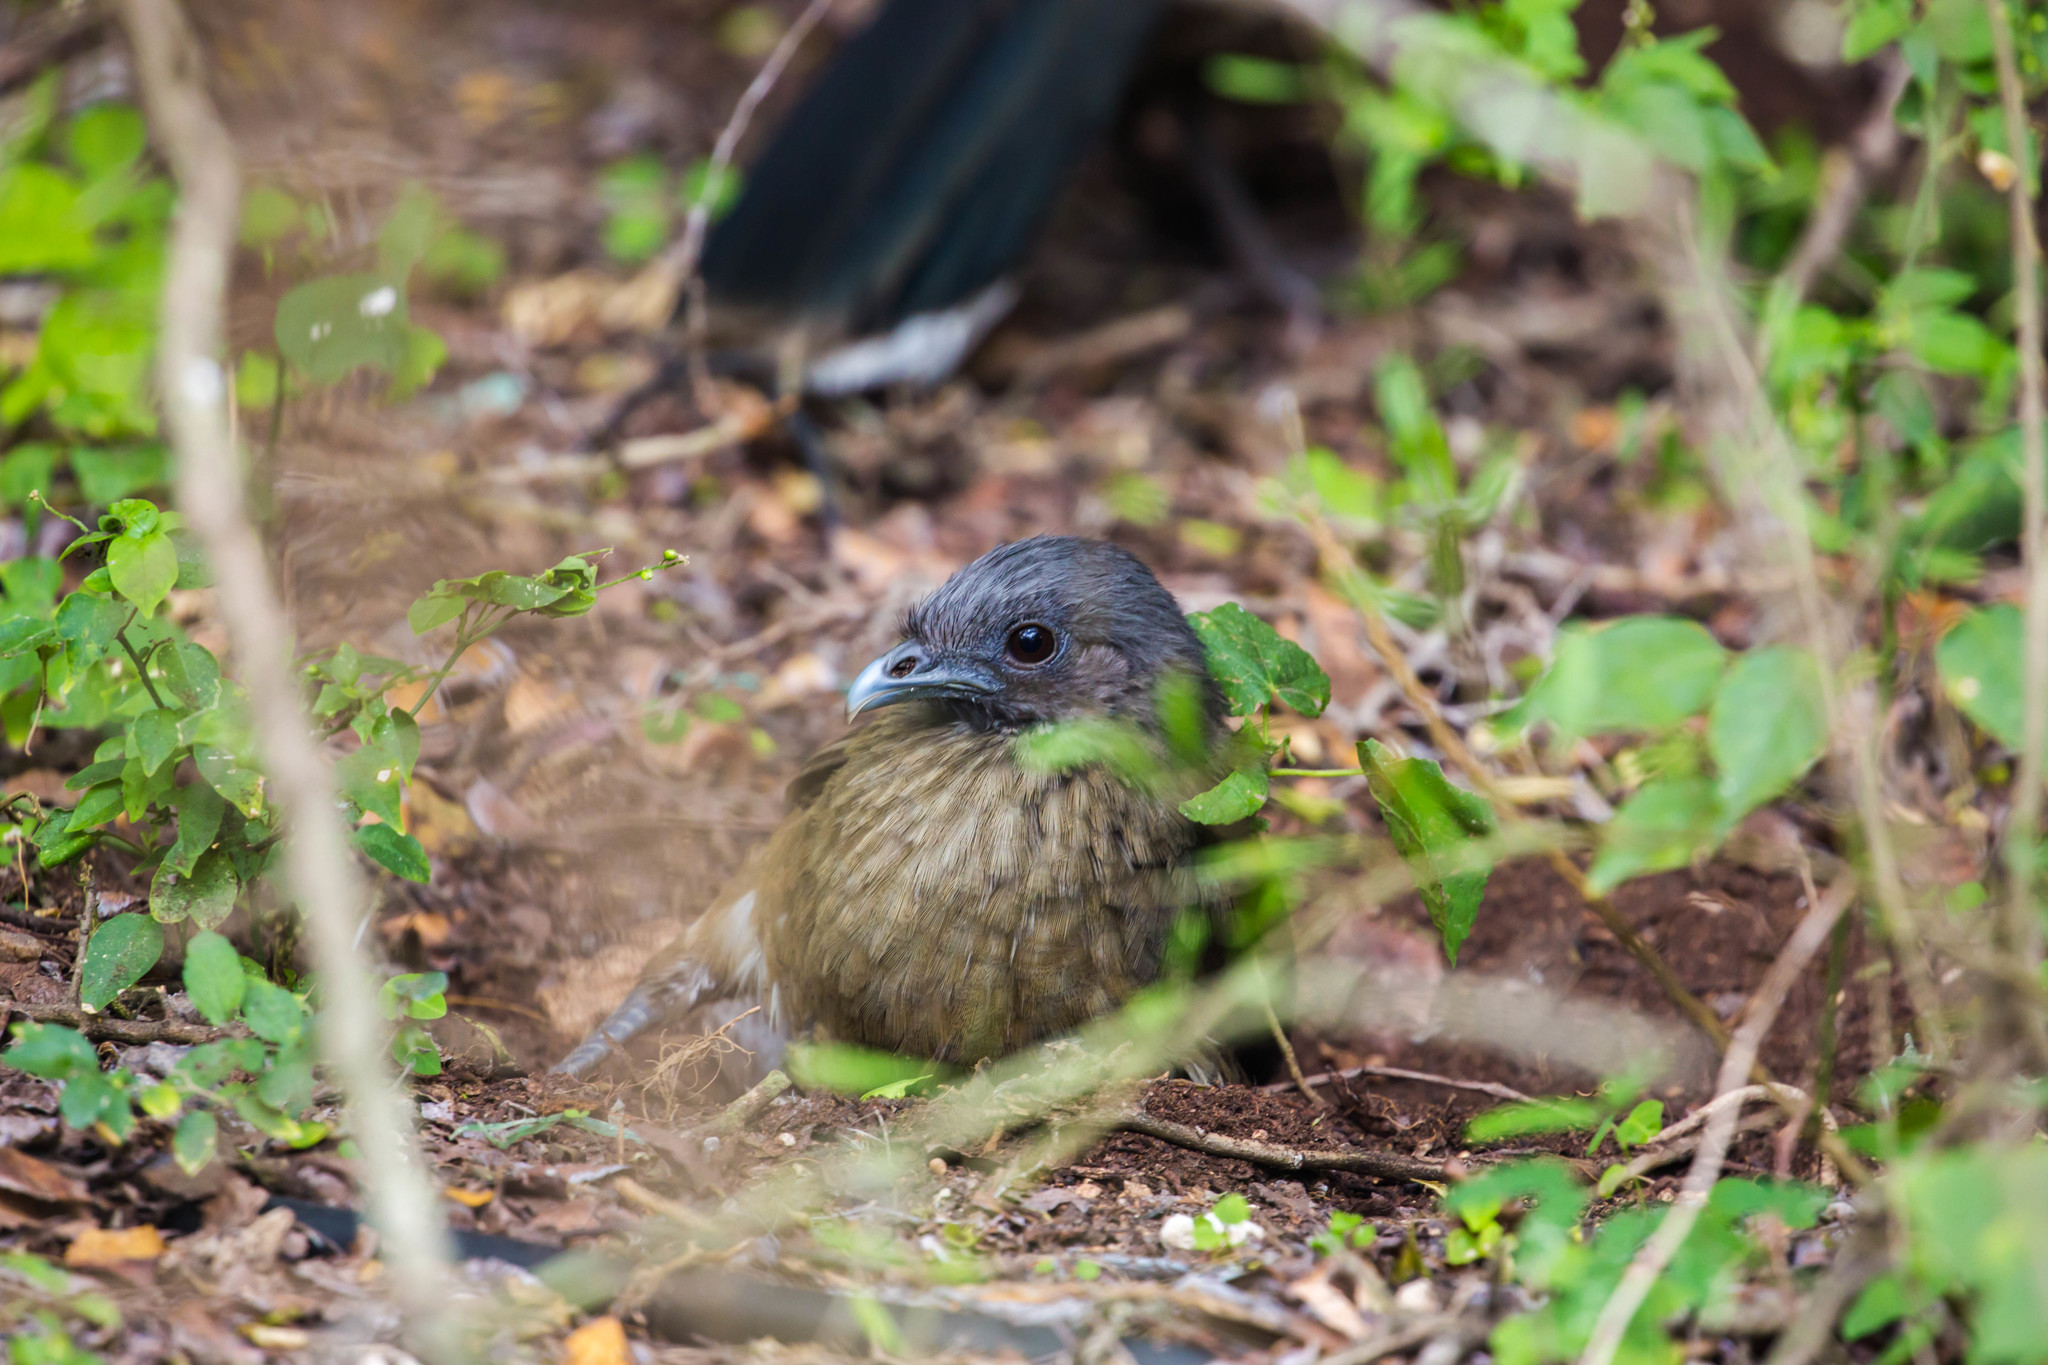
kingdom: Animalia
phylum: Chordata
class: Aves
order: Galliformes
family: Cracidae
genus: Ortalis
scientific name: Ortalis vetula
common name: Plain chachalaca
